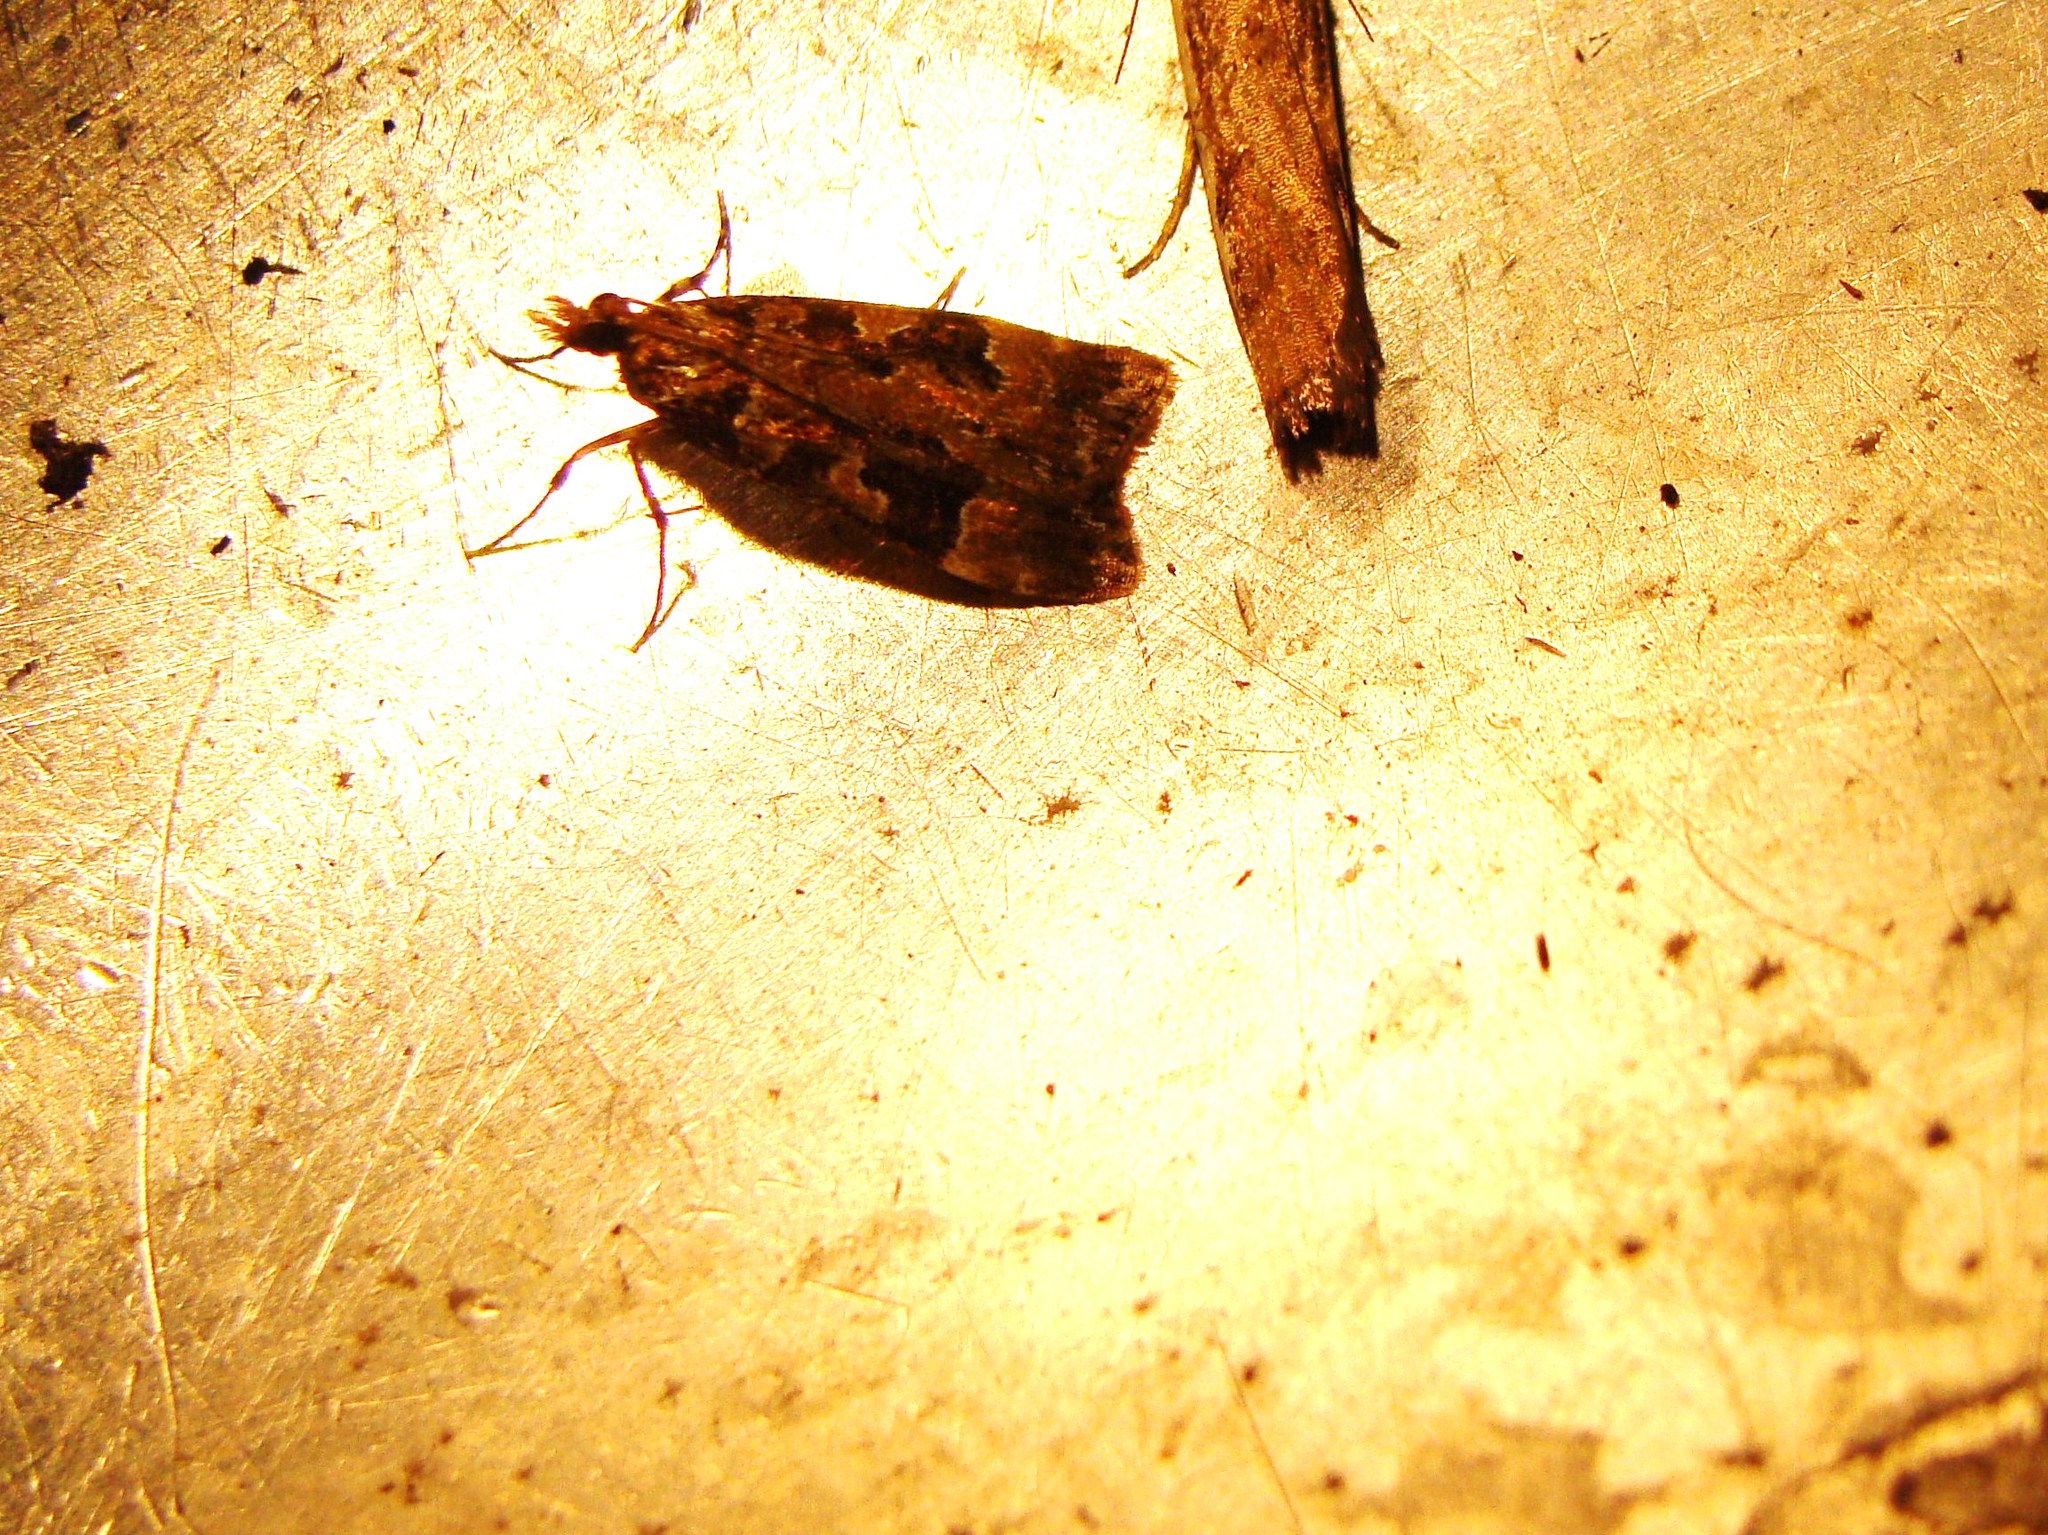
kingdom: Animalia
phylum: Arthropoda
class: Insecta
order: Lepidoptera
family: Crambidae
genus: Scoparia
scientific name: Scoparia ustimacula
